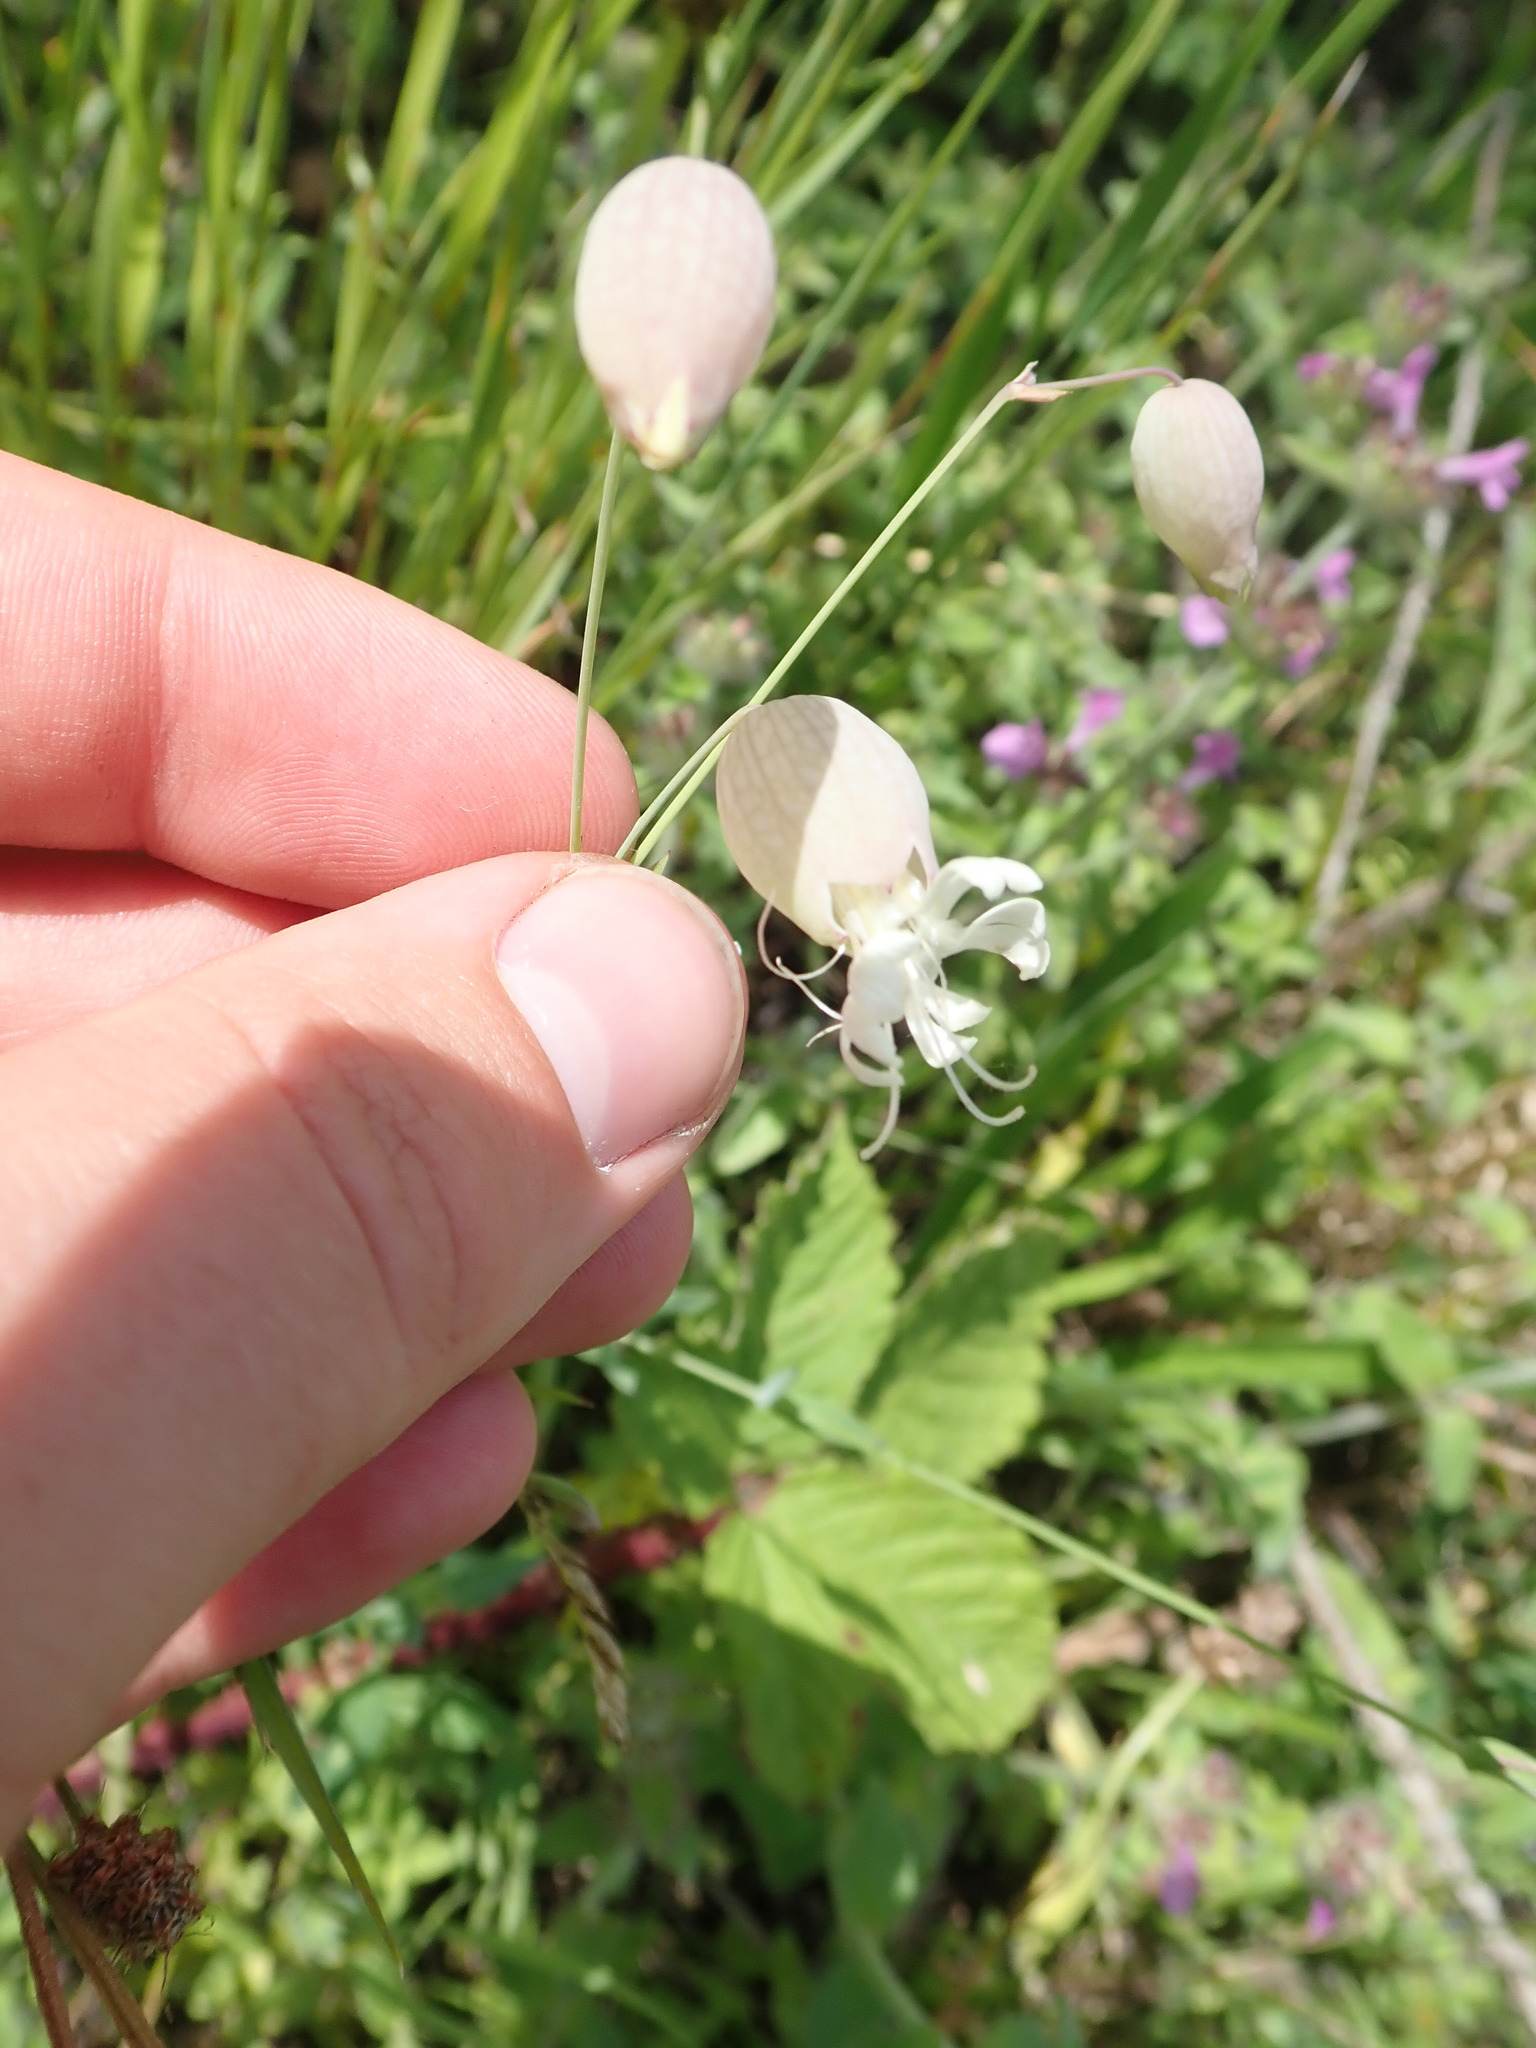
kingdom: Plantae
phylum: Tracheophyta
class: Magnoliopsida
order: Caryophyllales
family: Caryophyllaceae
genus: Silene
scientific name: Silene vulgaris
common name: Bladder campion
